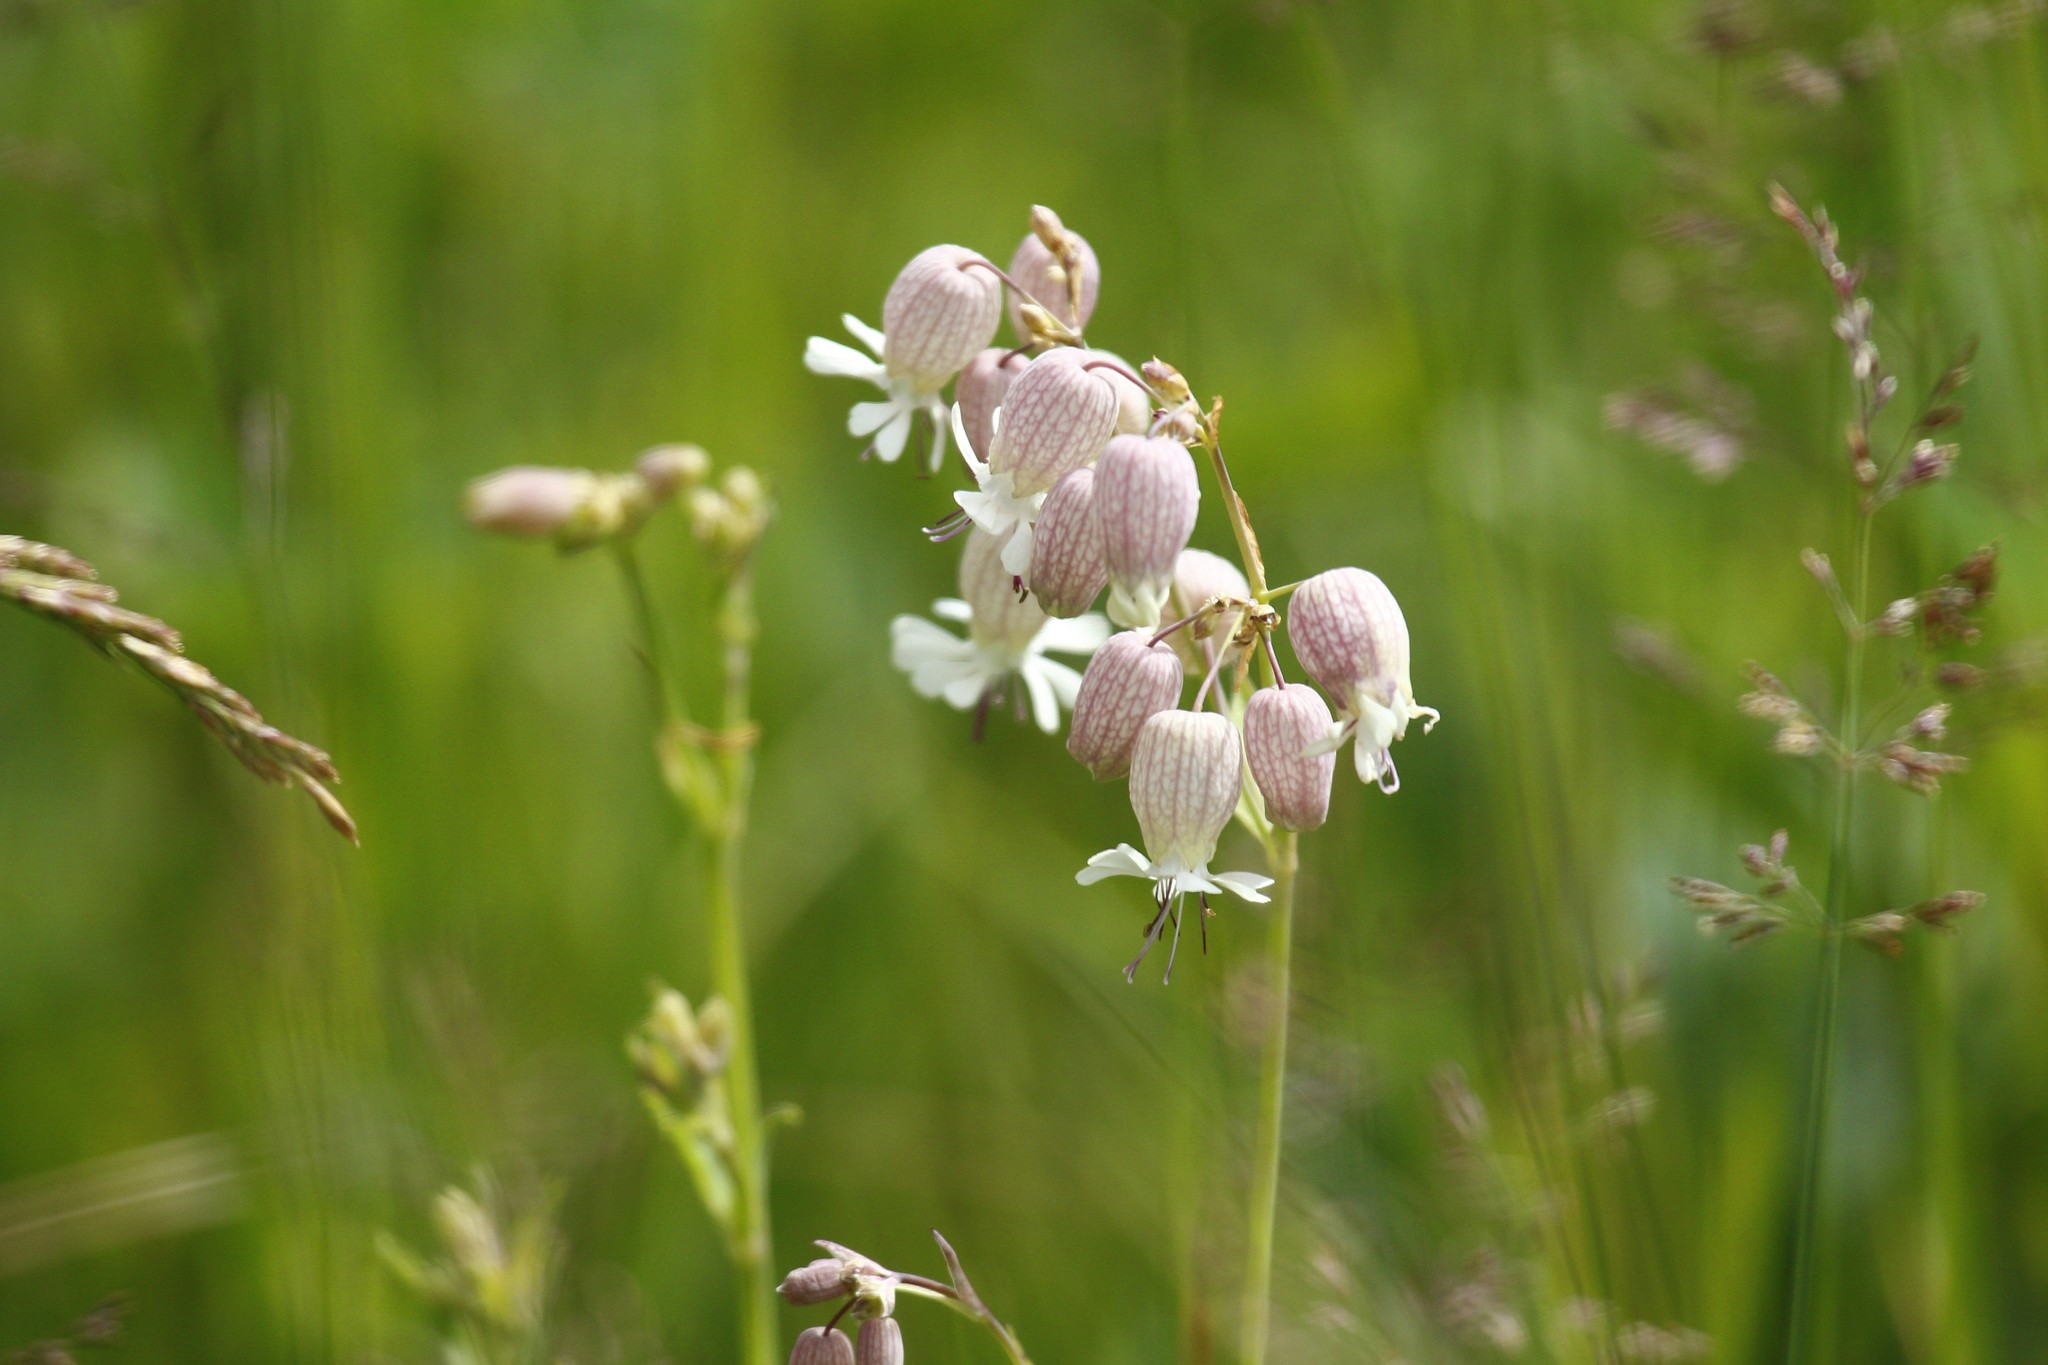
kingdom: Plantae
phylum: Tracheophyta
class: Magnoliopsida
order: Caryophyllales
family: Caryophyllaceae
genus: Silene
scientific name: Silene vulgaris
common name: Bladder campion
